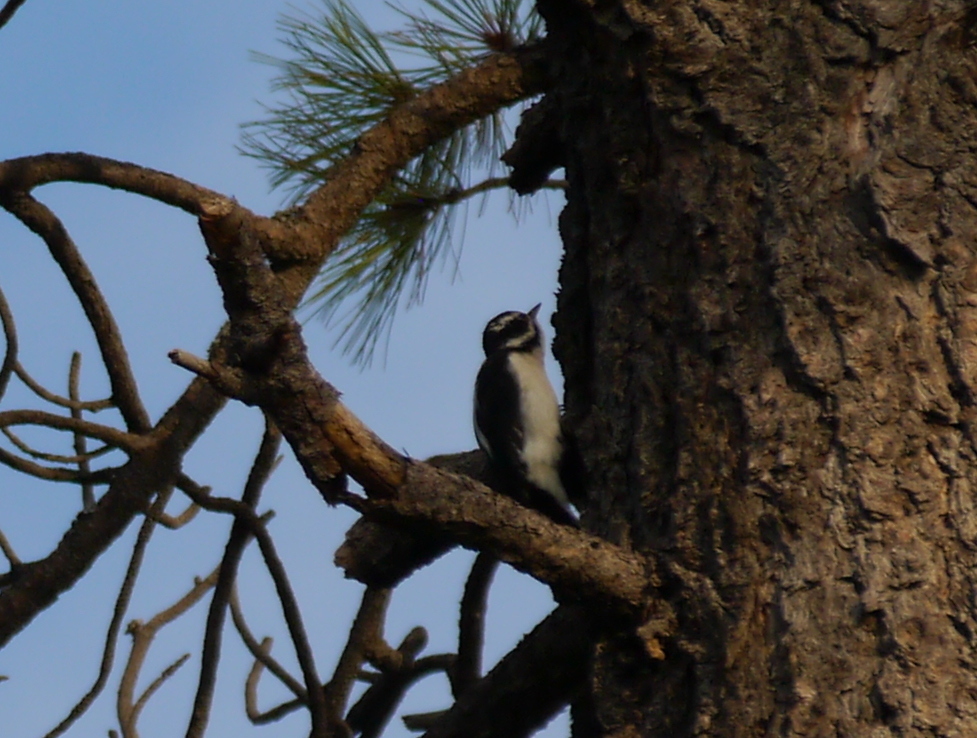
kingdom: Animalia
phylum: Chordata
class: Aves
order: Piciformes
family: Picidae
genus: Leuconotopicus
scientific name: Leuconotopicus villosus
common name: Hairy woodpecker
